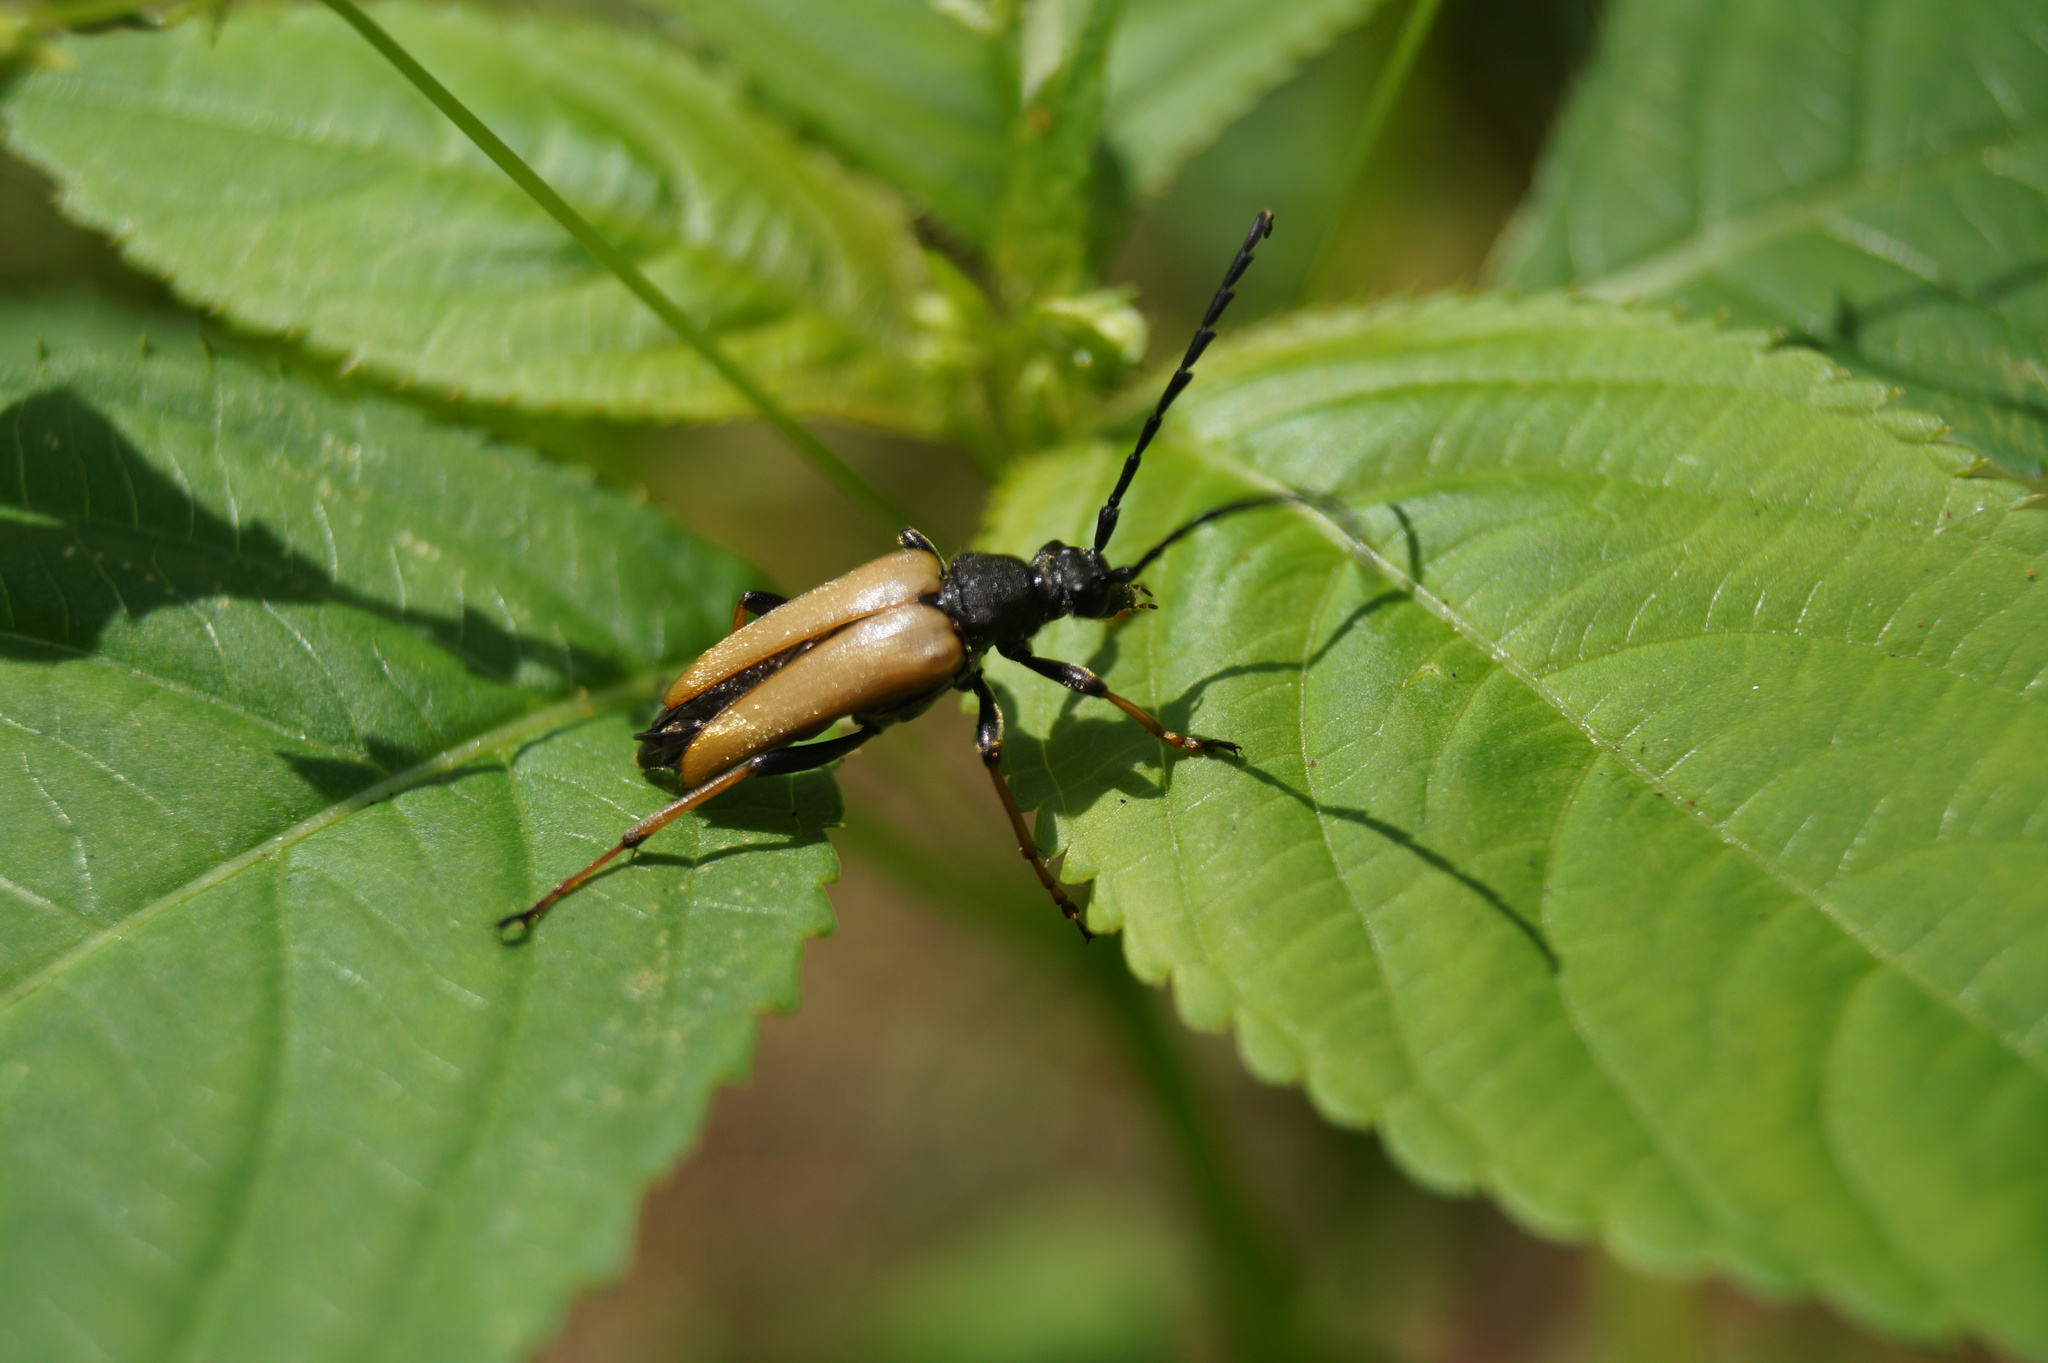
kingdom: Animalia
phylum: Arthropoda
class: Insecta
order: Coleoptera
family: Cerambycidae
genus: Stictoleptura
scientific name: Stictoleptura rubra
